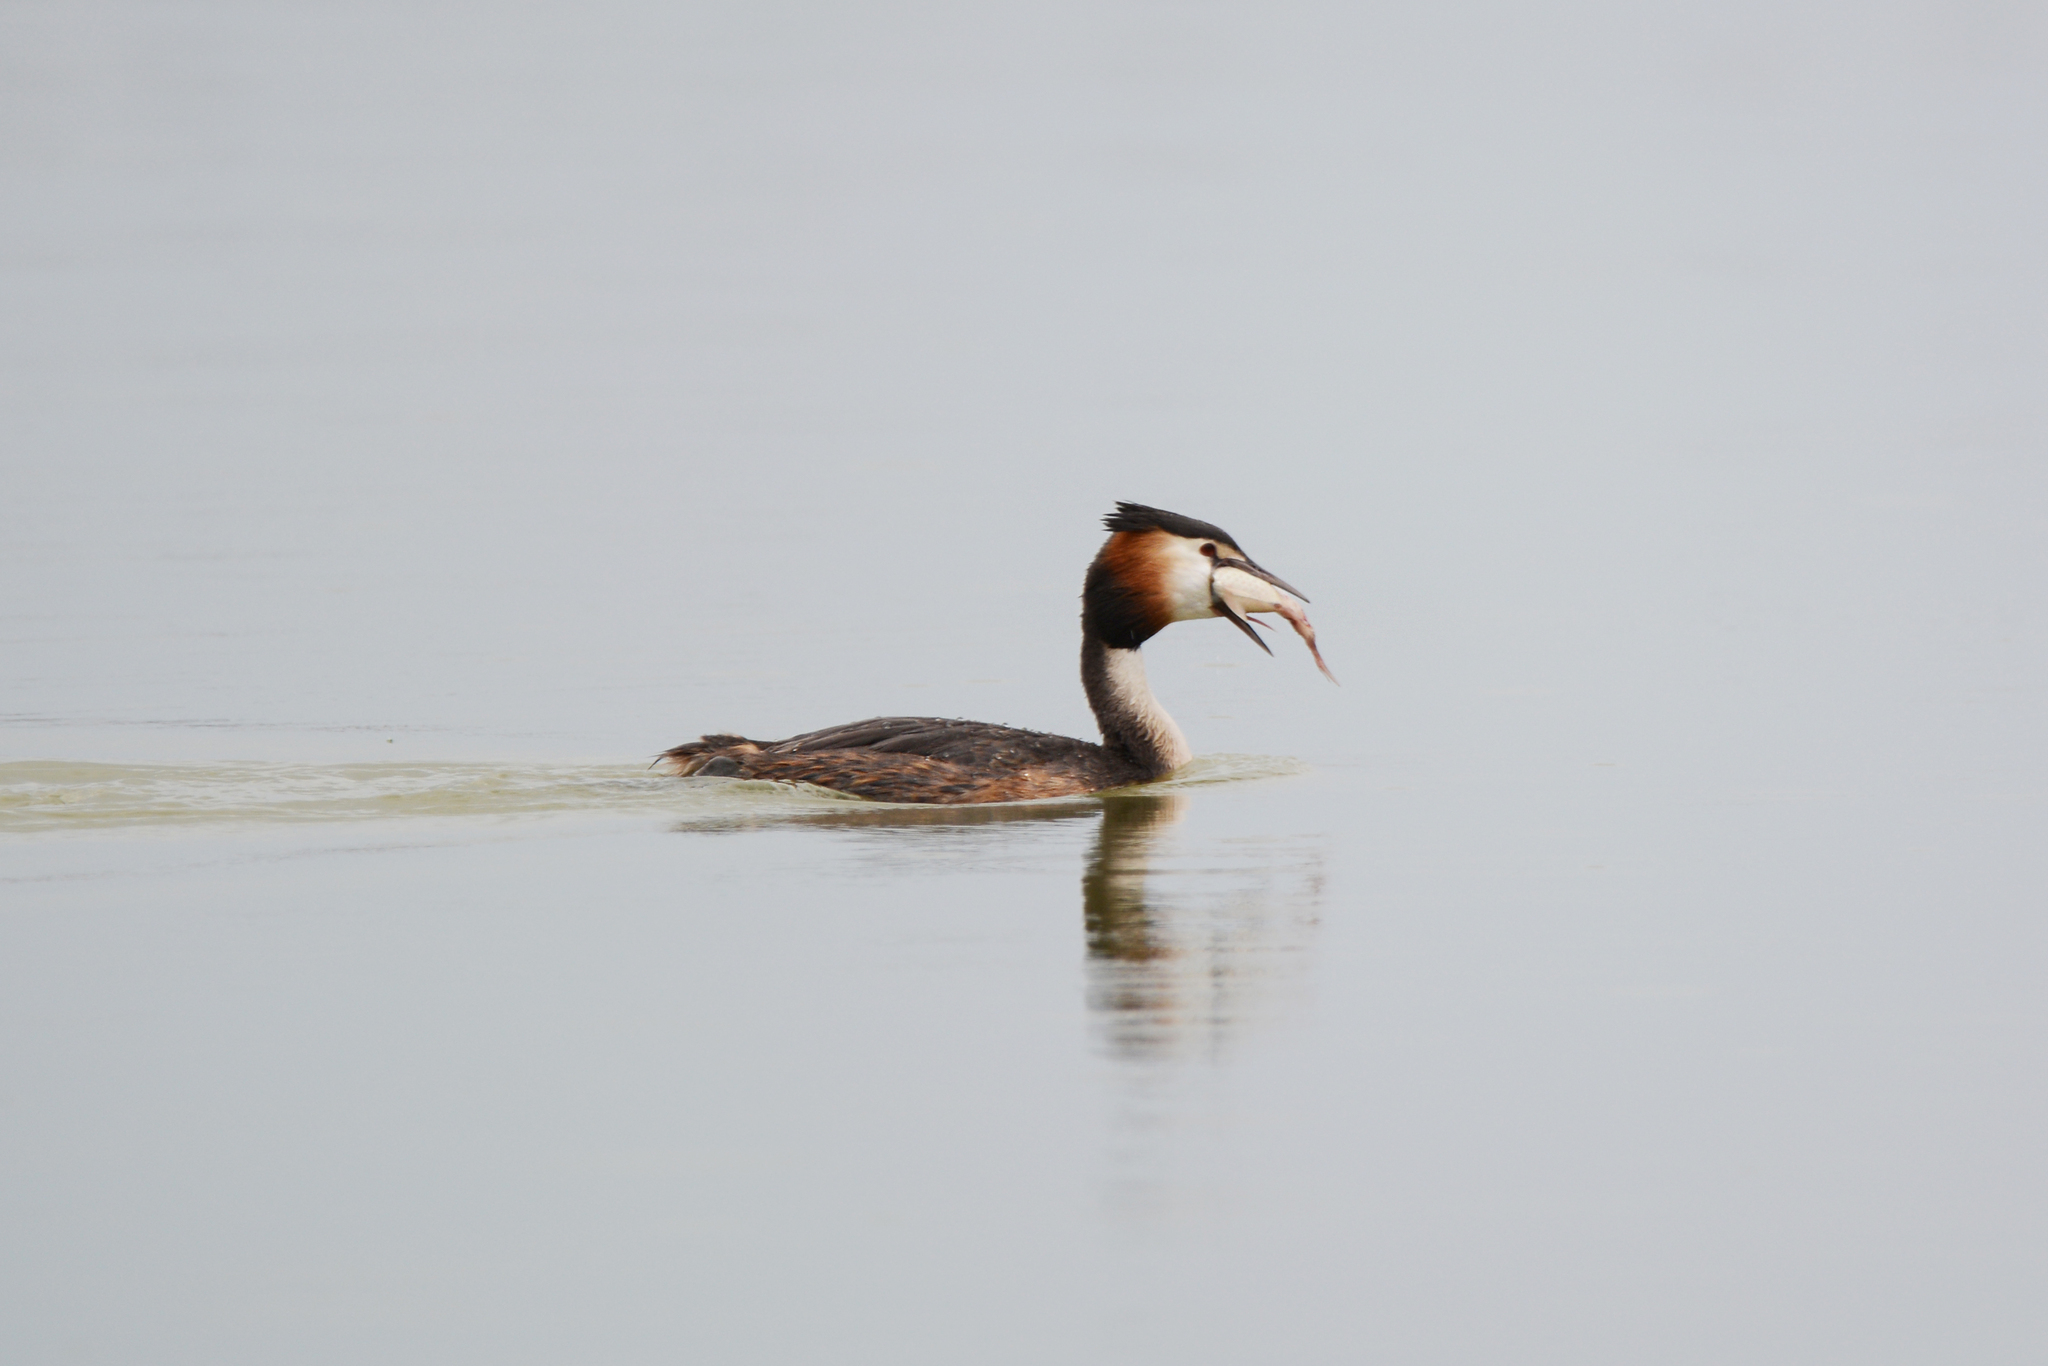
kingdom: Animalia
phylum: Chordata
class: Aves
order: Podicipediformes
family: Podicipedidae
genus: Podiceps
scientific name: Podiceps cristatus
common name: Great crested grebe
